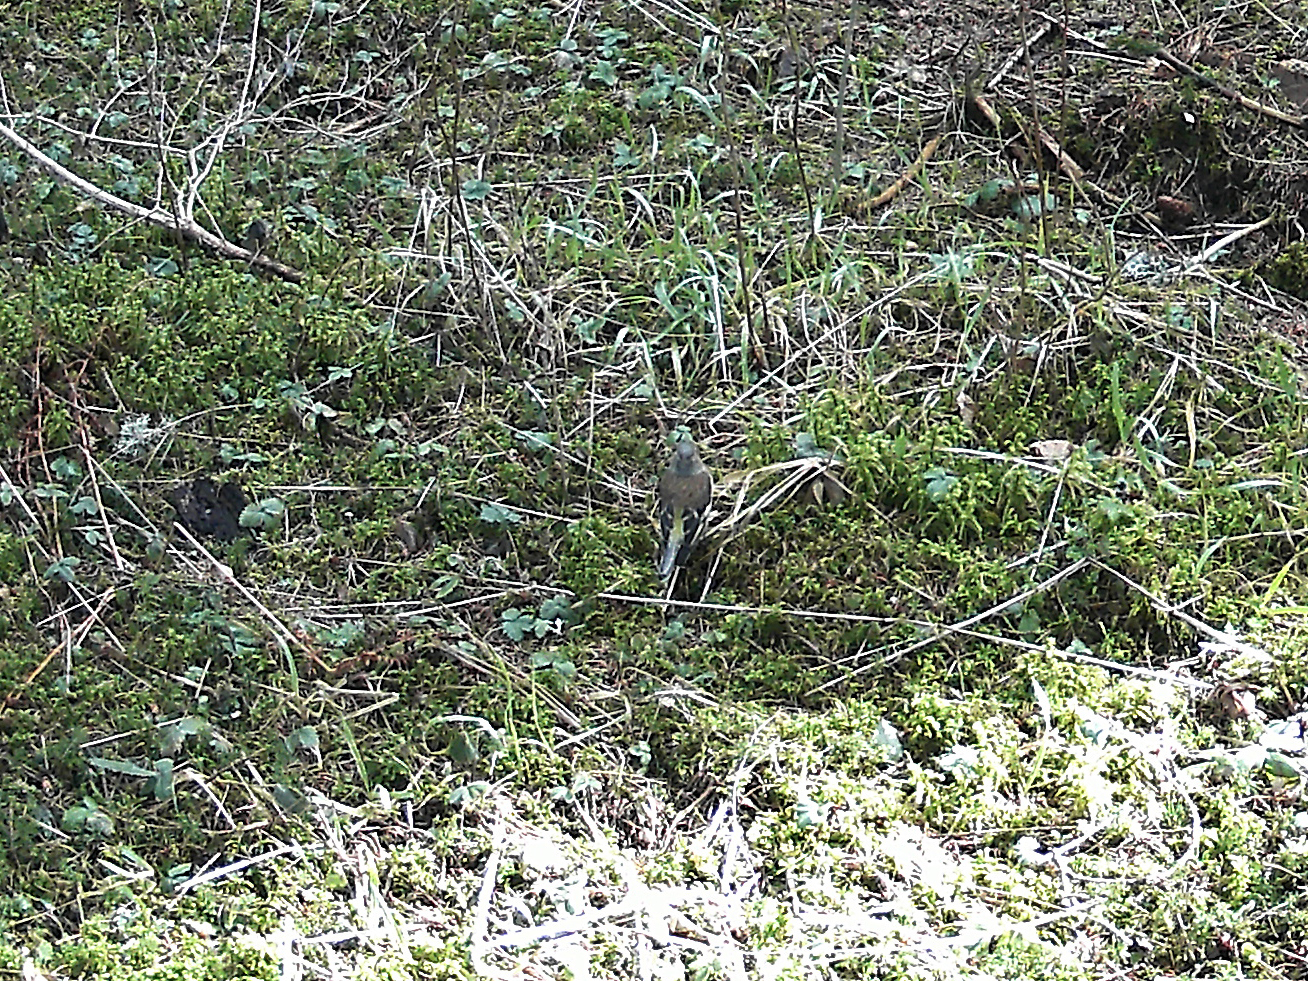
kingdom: Animalia
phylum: Chordata
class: Aves
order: Passeriformes
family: Fringillidae
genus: Fringilla
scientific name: Fringilla coelebs
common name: Common chaffinch
